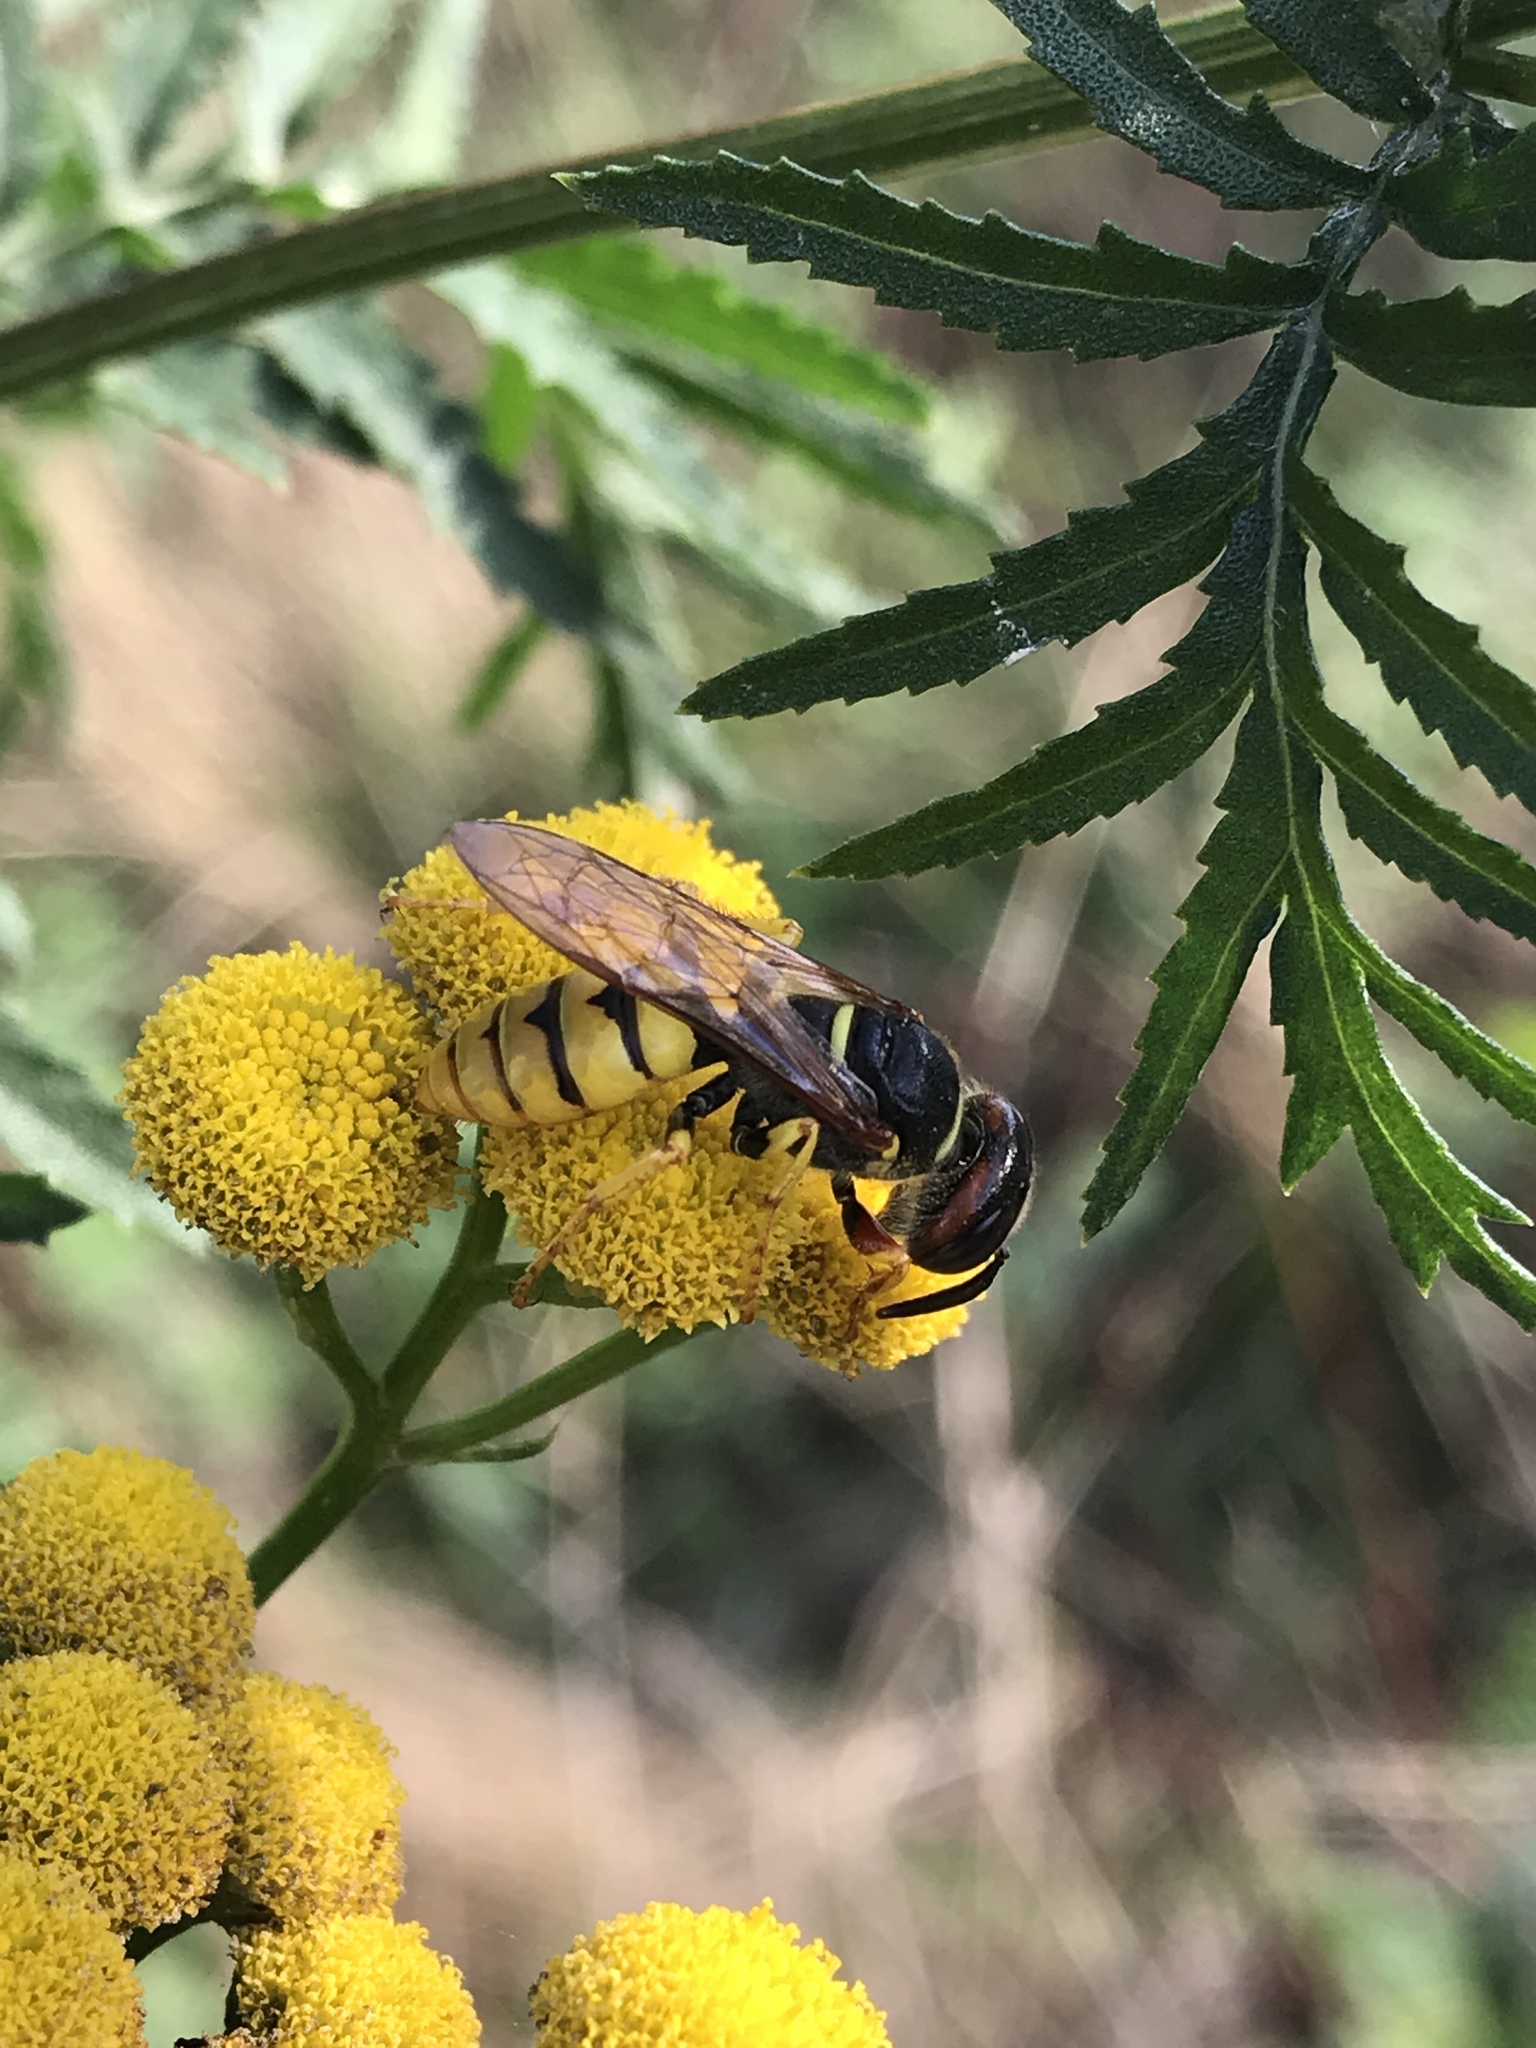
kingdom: Animalia
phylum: Arthropoda
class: Insecta
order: Hymenoptera
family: Crabronidae
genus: Philanthus
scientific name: Philanthus triangulum
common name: Bee wolf
